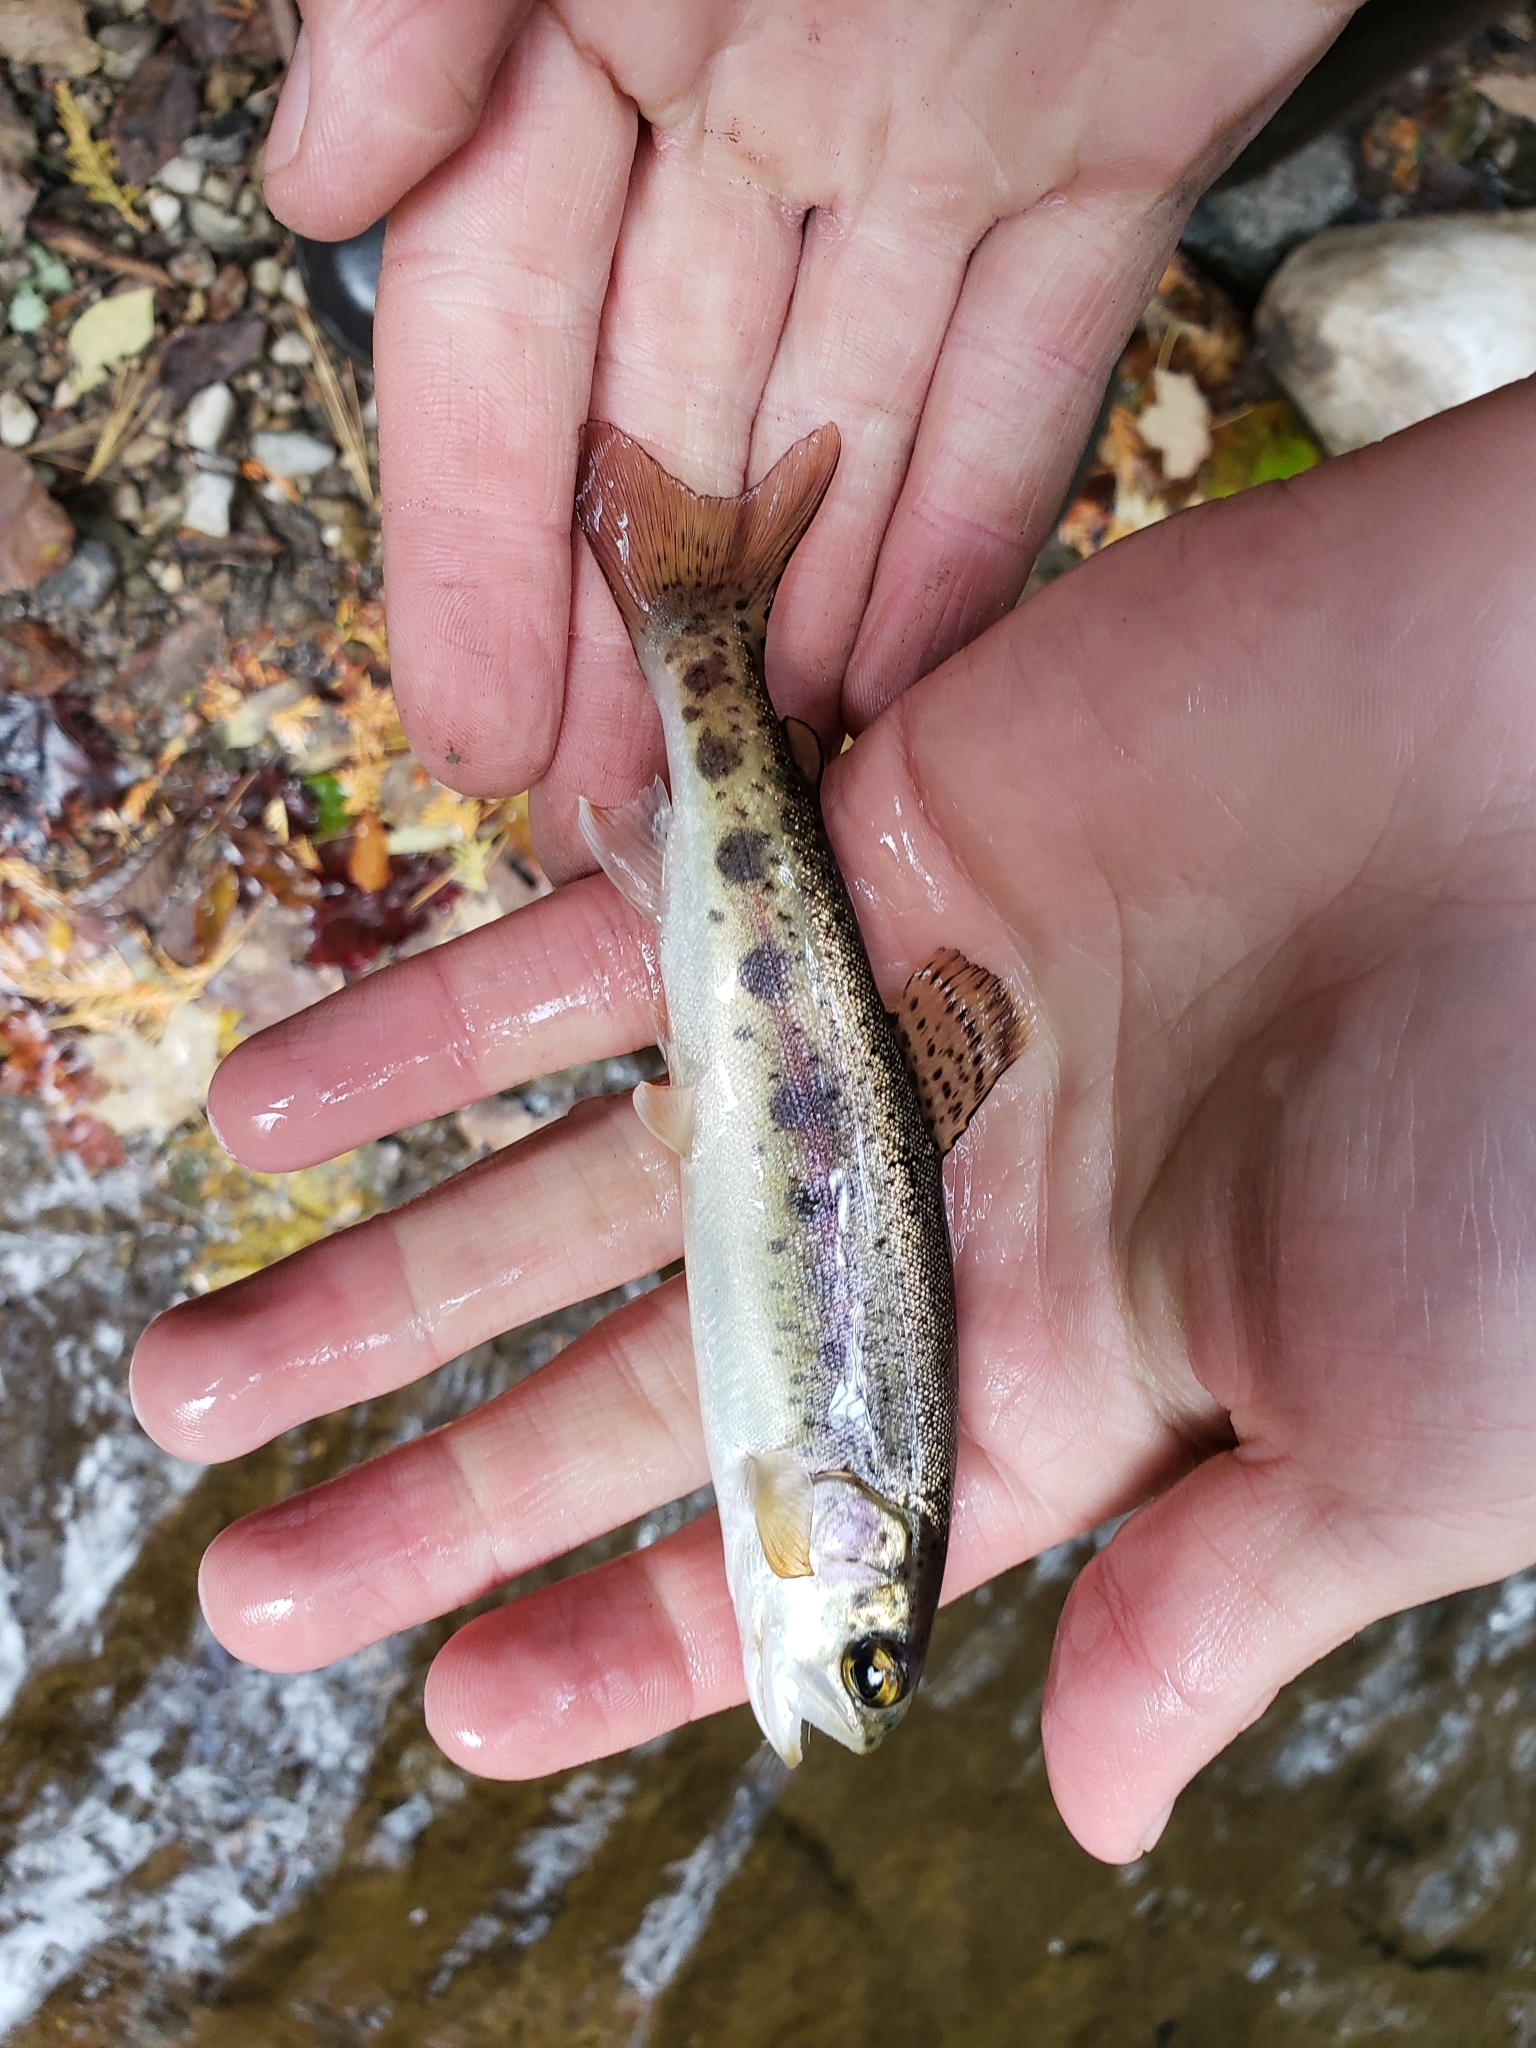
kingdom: Animalia
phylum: Chordata
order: Salmoniformes
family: Salmonidae
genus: Oncorhynchus
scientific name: Oncorhynchus mykiss
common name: Rainbow trout
